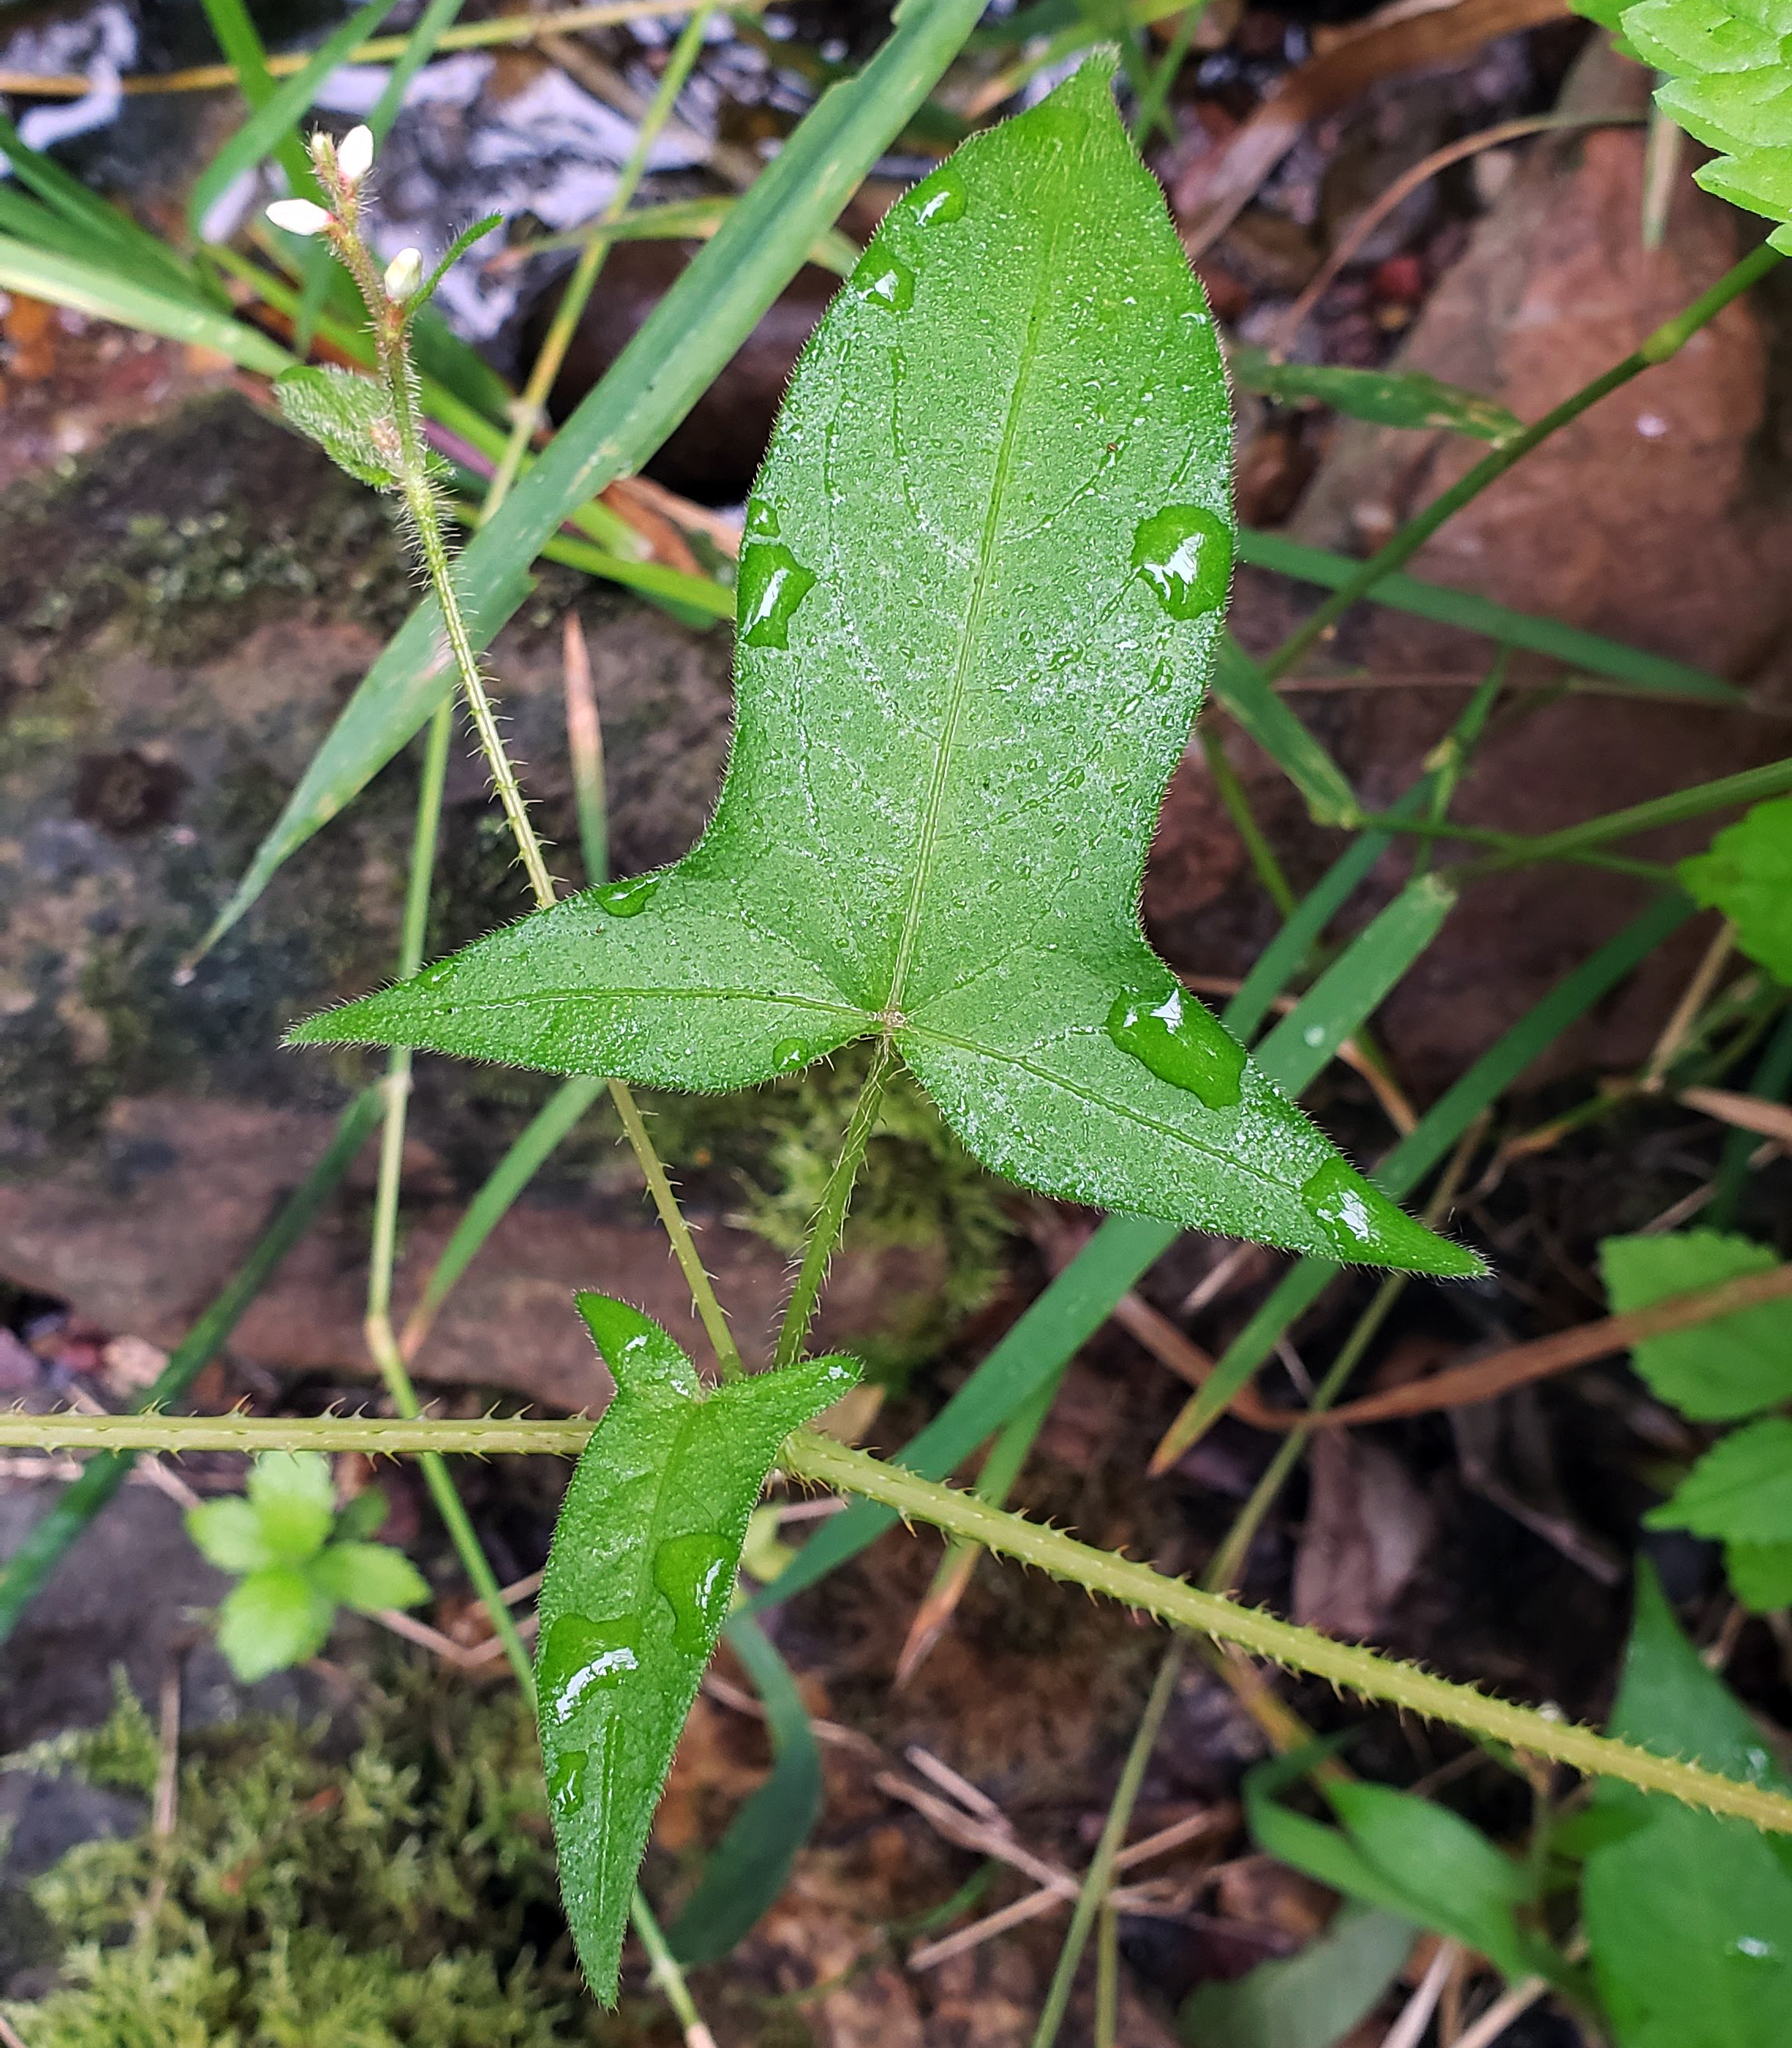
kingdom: Plantae
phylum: Tracheophyta
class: Magnoliopsida
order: Caryophyllales
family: Polygonaceae
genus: Persicaria
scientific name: Persicaria arifolia
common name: Halberd-leaved tear-thumb
